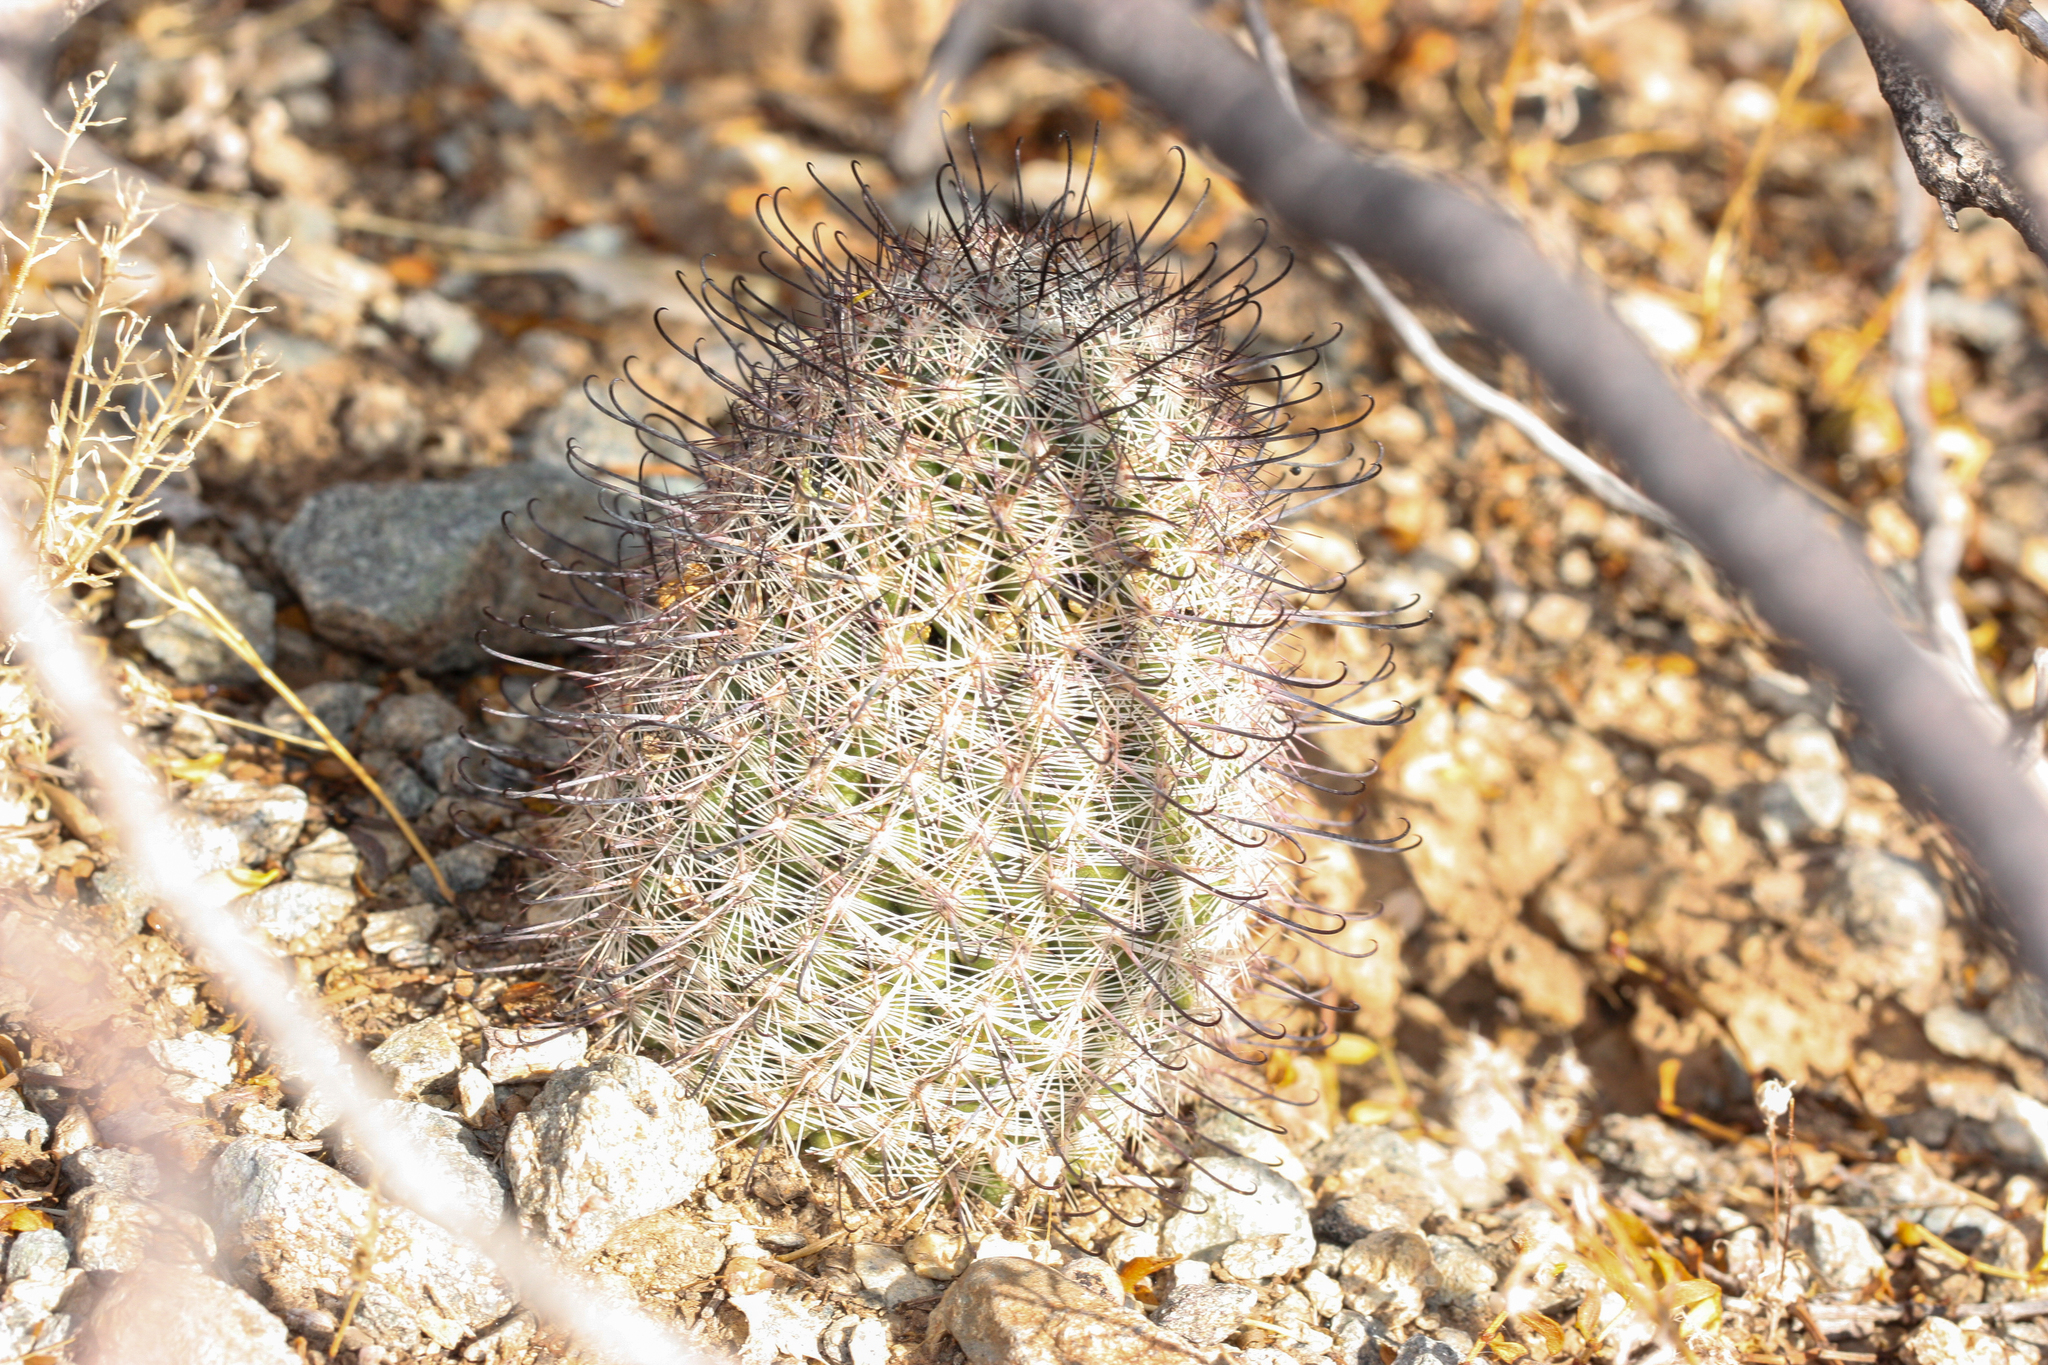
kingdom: Plantae
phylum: Tracheophyta
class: Magnoliopsida
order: Caryophyllales
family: Cactaceae
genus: Cochemiea
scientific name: Cochemiea grahamii
